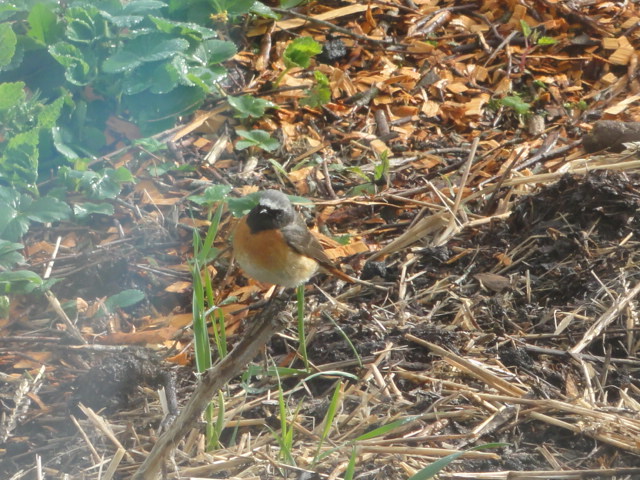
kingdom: Animalia
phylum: Chordata
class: Aves
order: Passeriformes
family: Muscicapidae
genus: Phoenicurus
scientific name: Phoenicurus phoenicurus
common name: Common redstart
